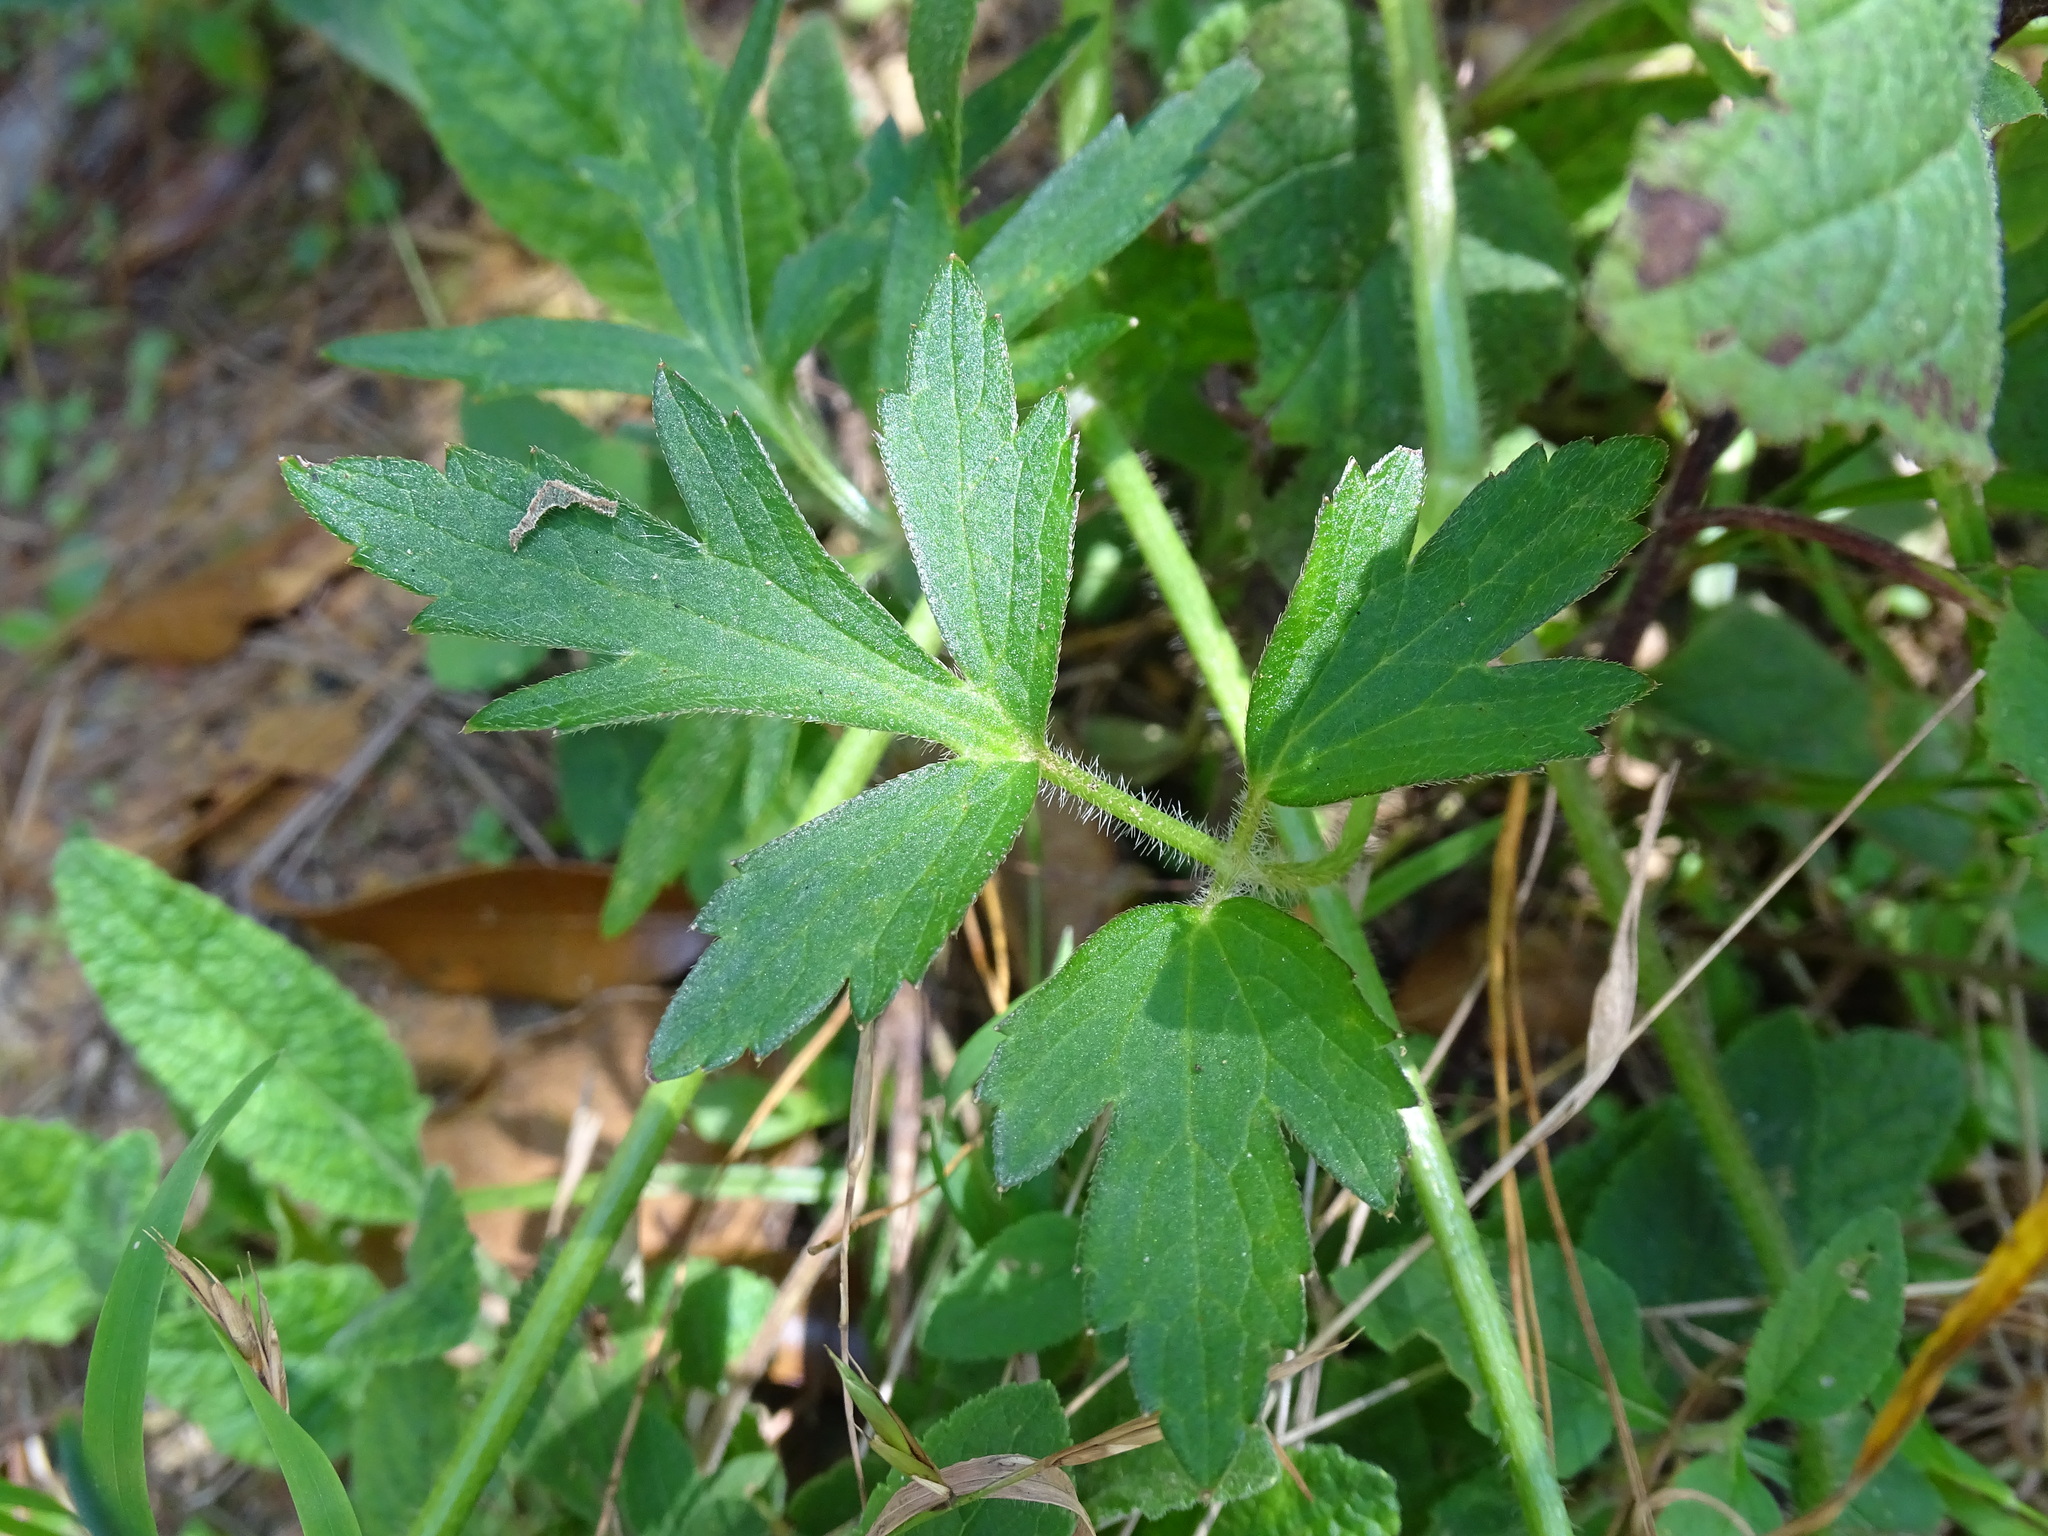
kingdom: Plantae
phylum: Tracheophyta
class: Magnoliopsida
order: Ranunculales
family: Ranunculaceae
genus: Ranunculus
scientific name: Ranunculus petiolaris
